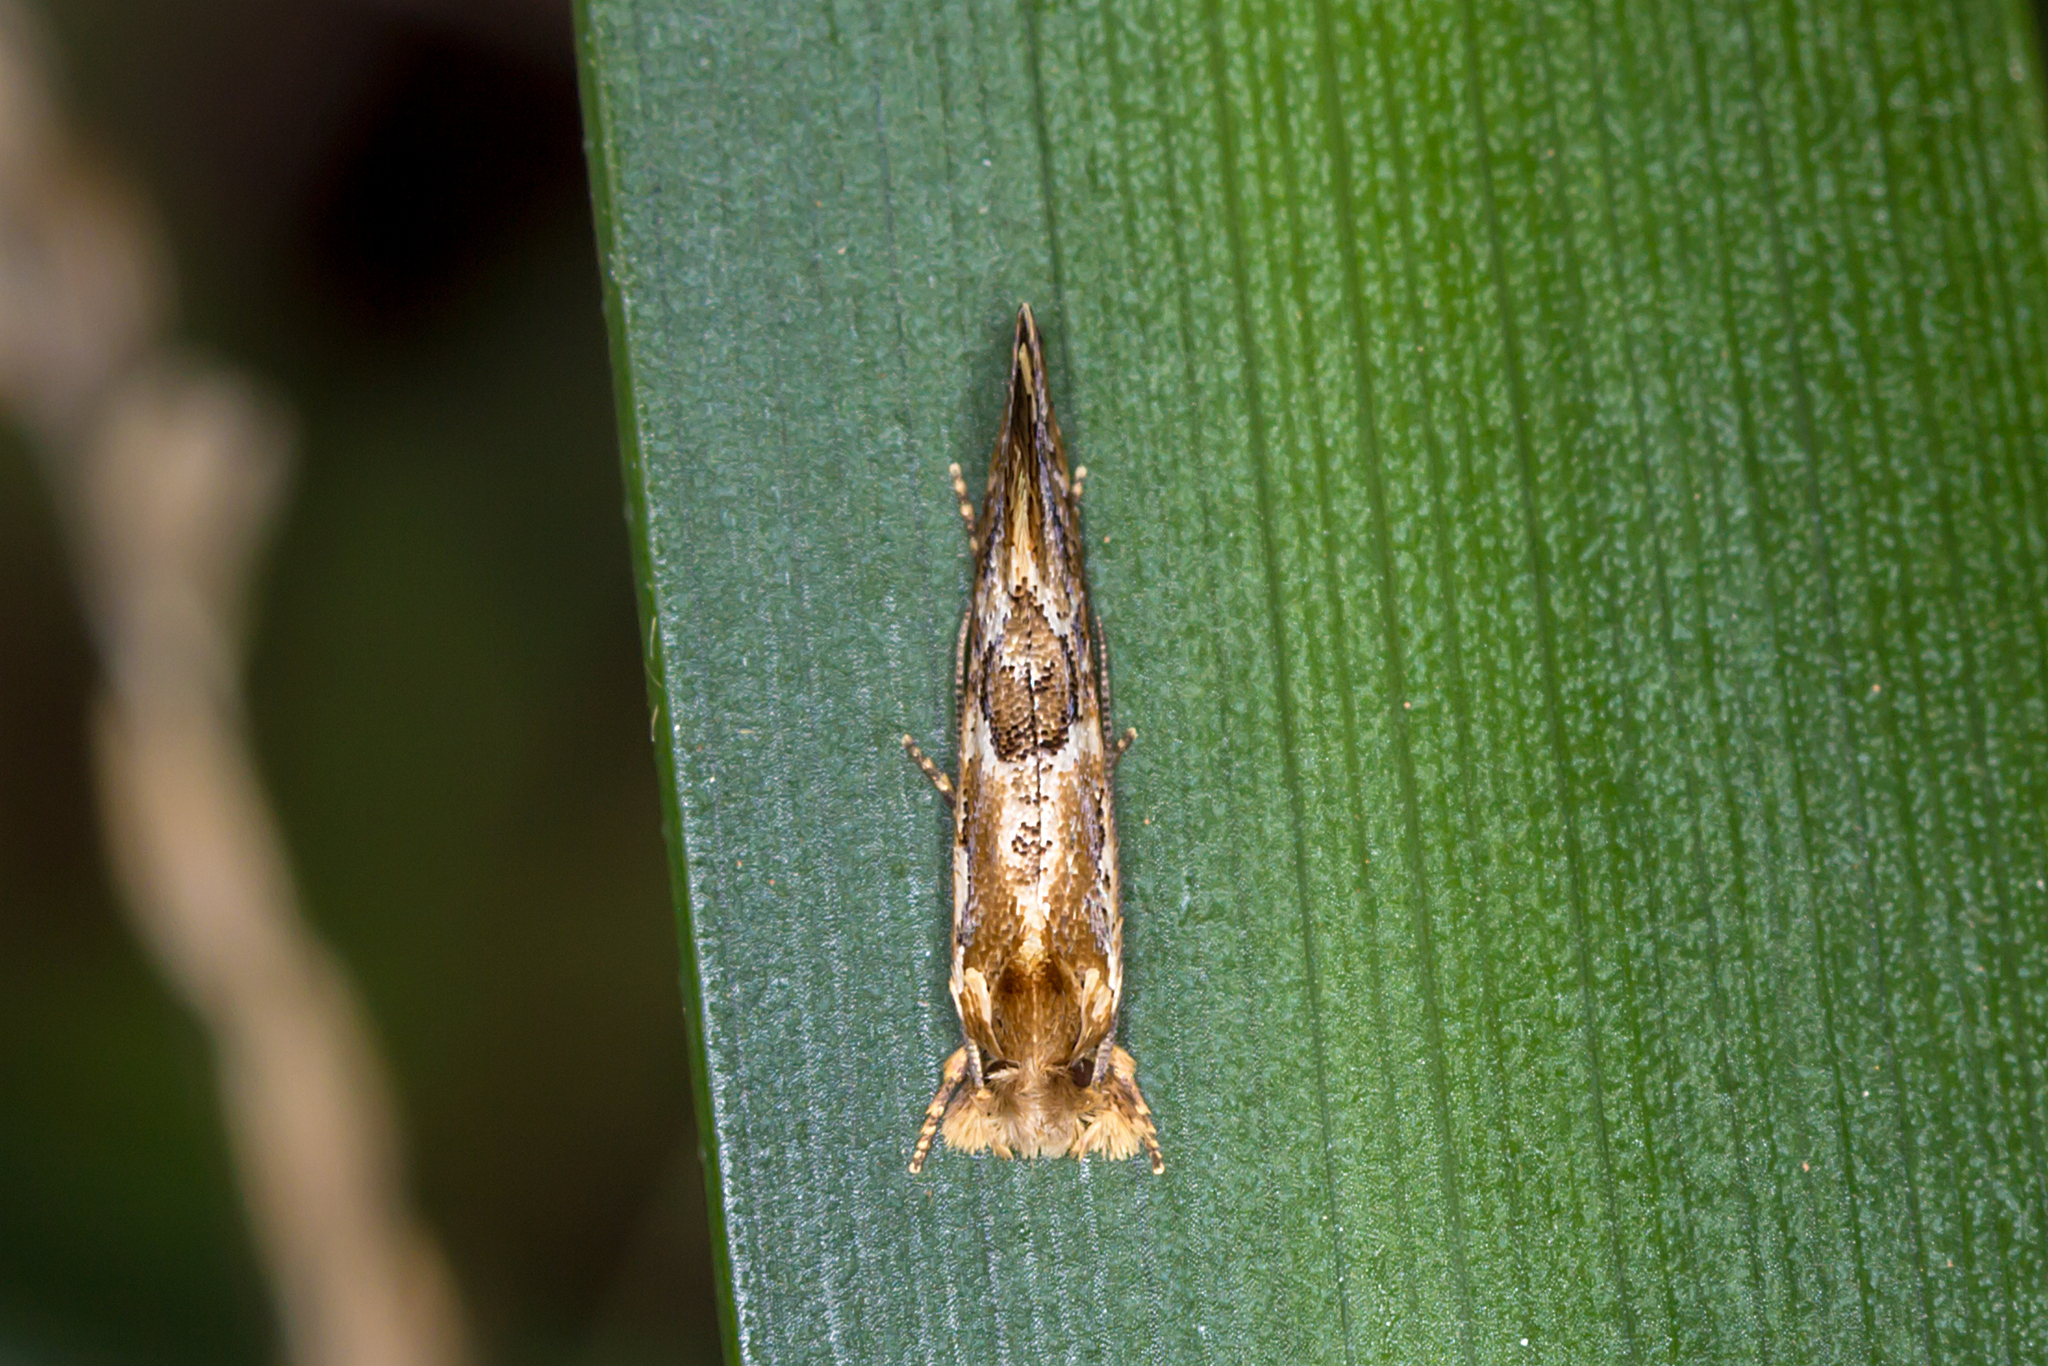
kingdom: Animalia
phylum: Arthropoda
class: Insecta
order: Lepidoptera
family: Tineidae
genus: Moerarchis
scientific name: Moerarchis inconcisella
